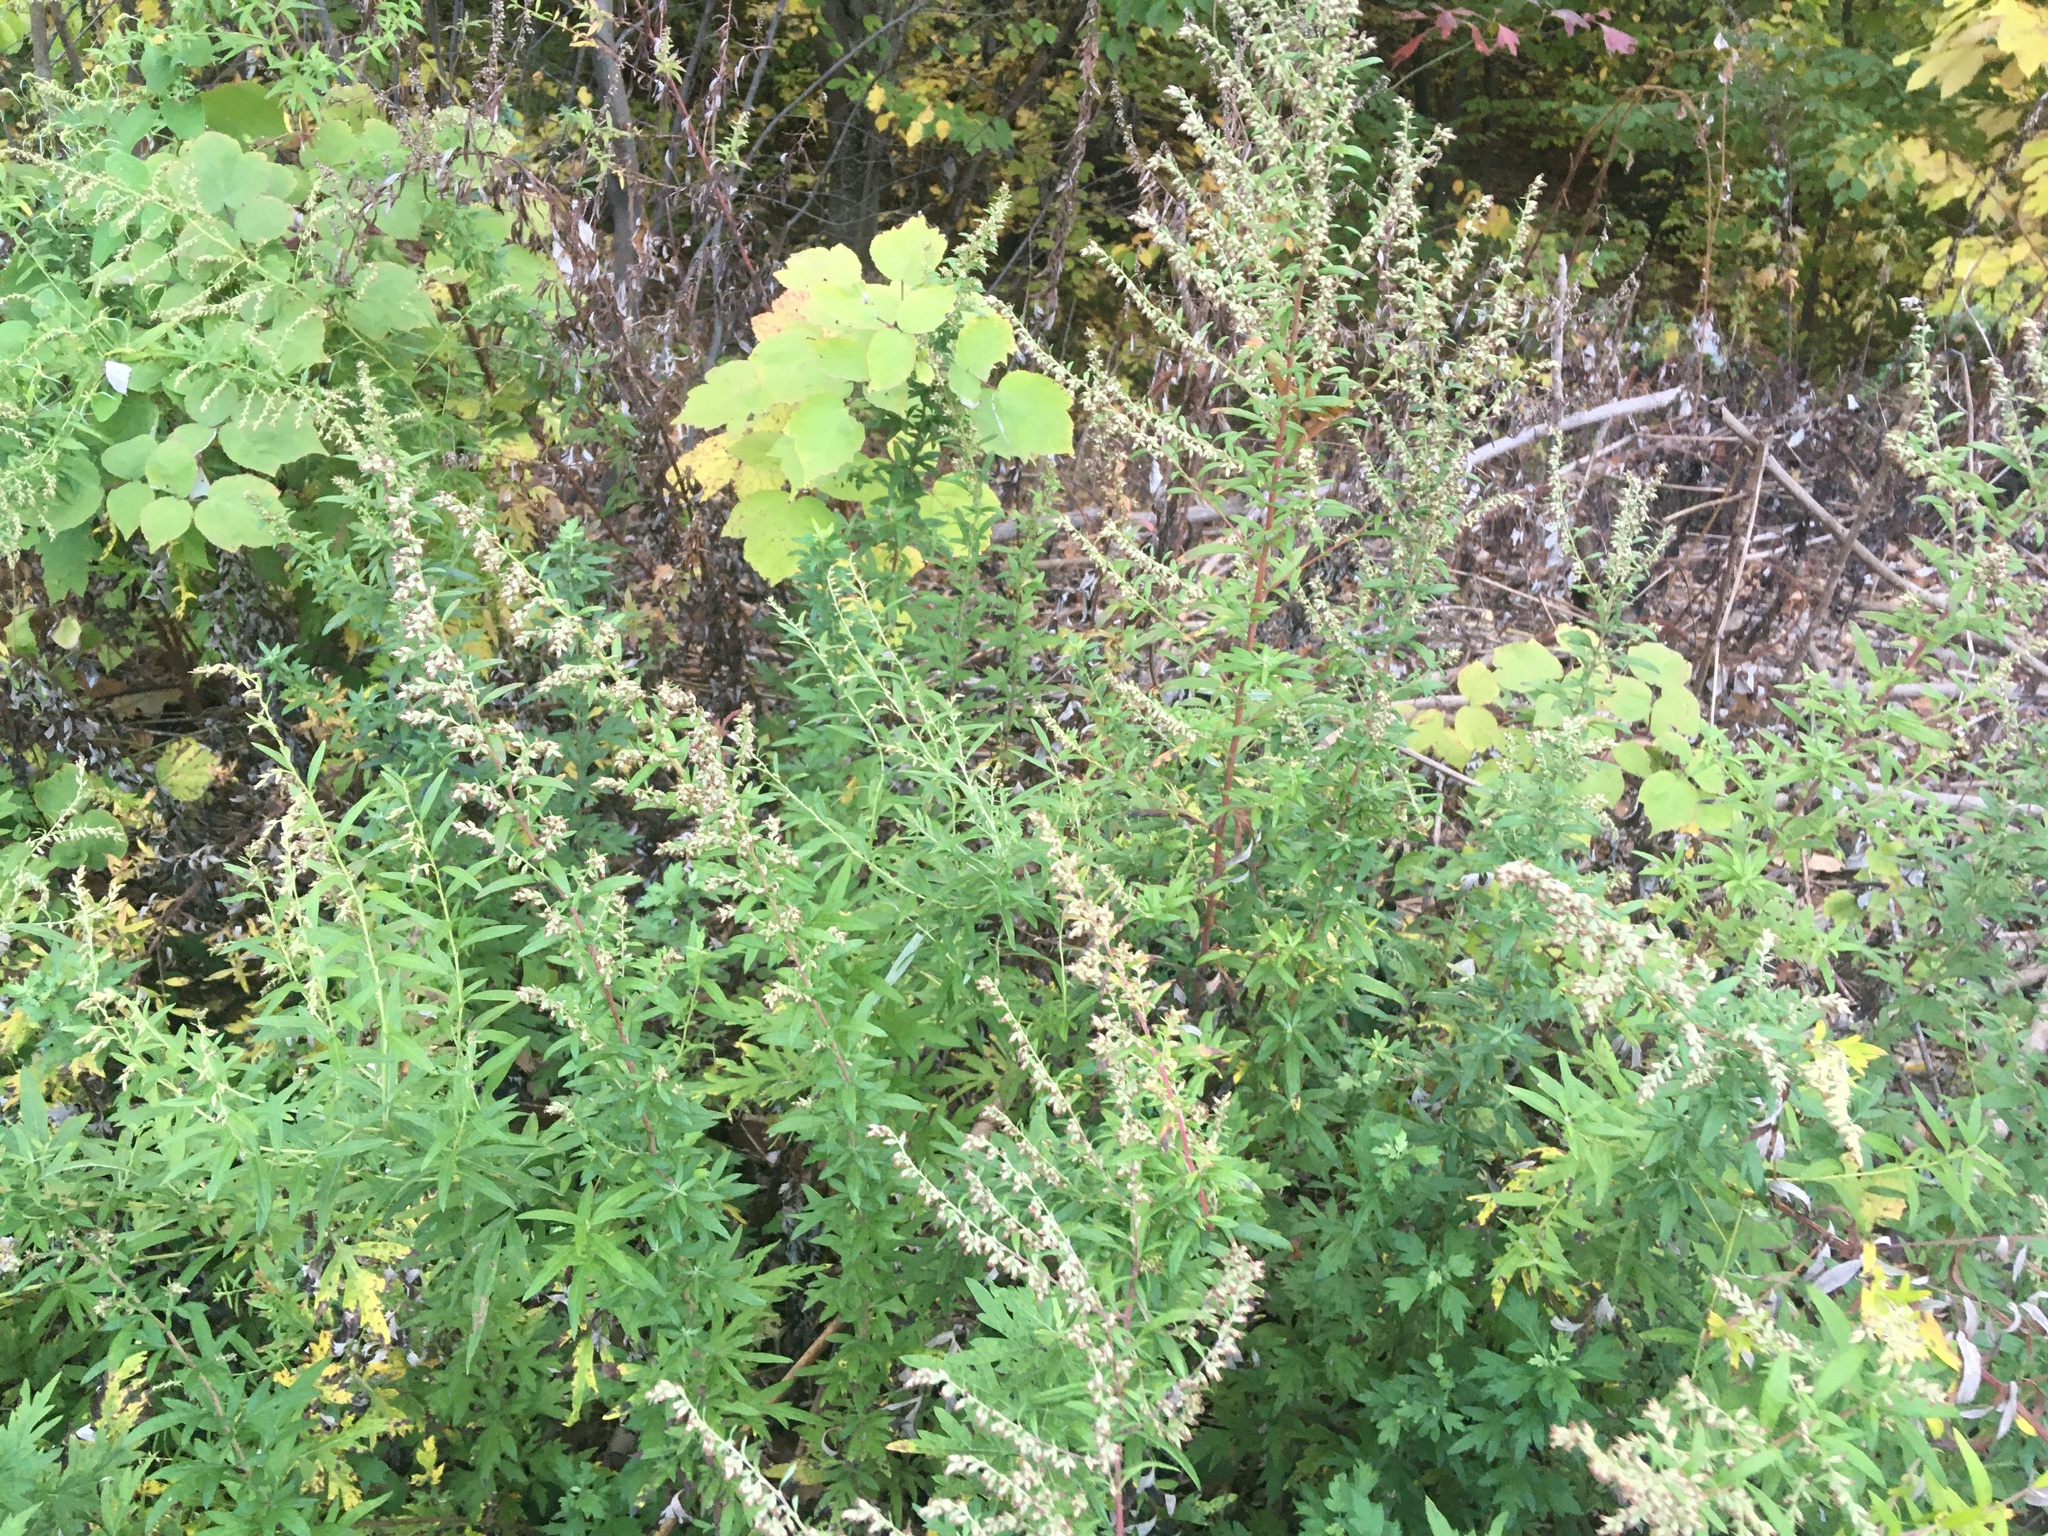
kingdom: Plantae
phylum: Tracheophyta
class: Magnoliopsida
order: Asterales
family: Asteraceae
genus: Artemisia
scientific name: Artemisia vulgaris
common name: Mugwort
